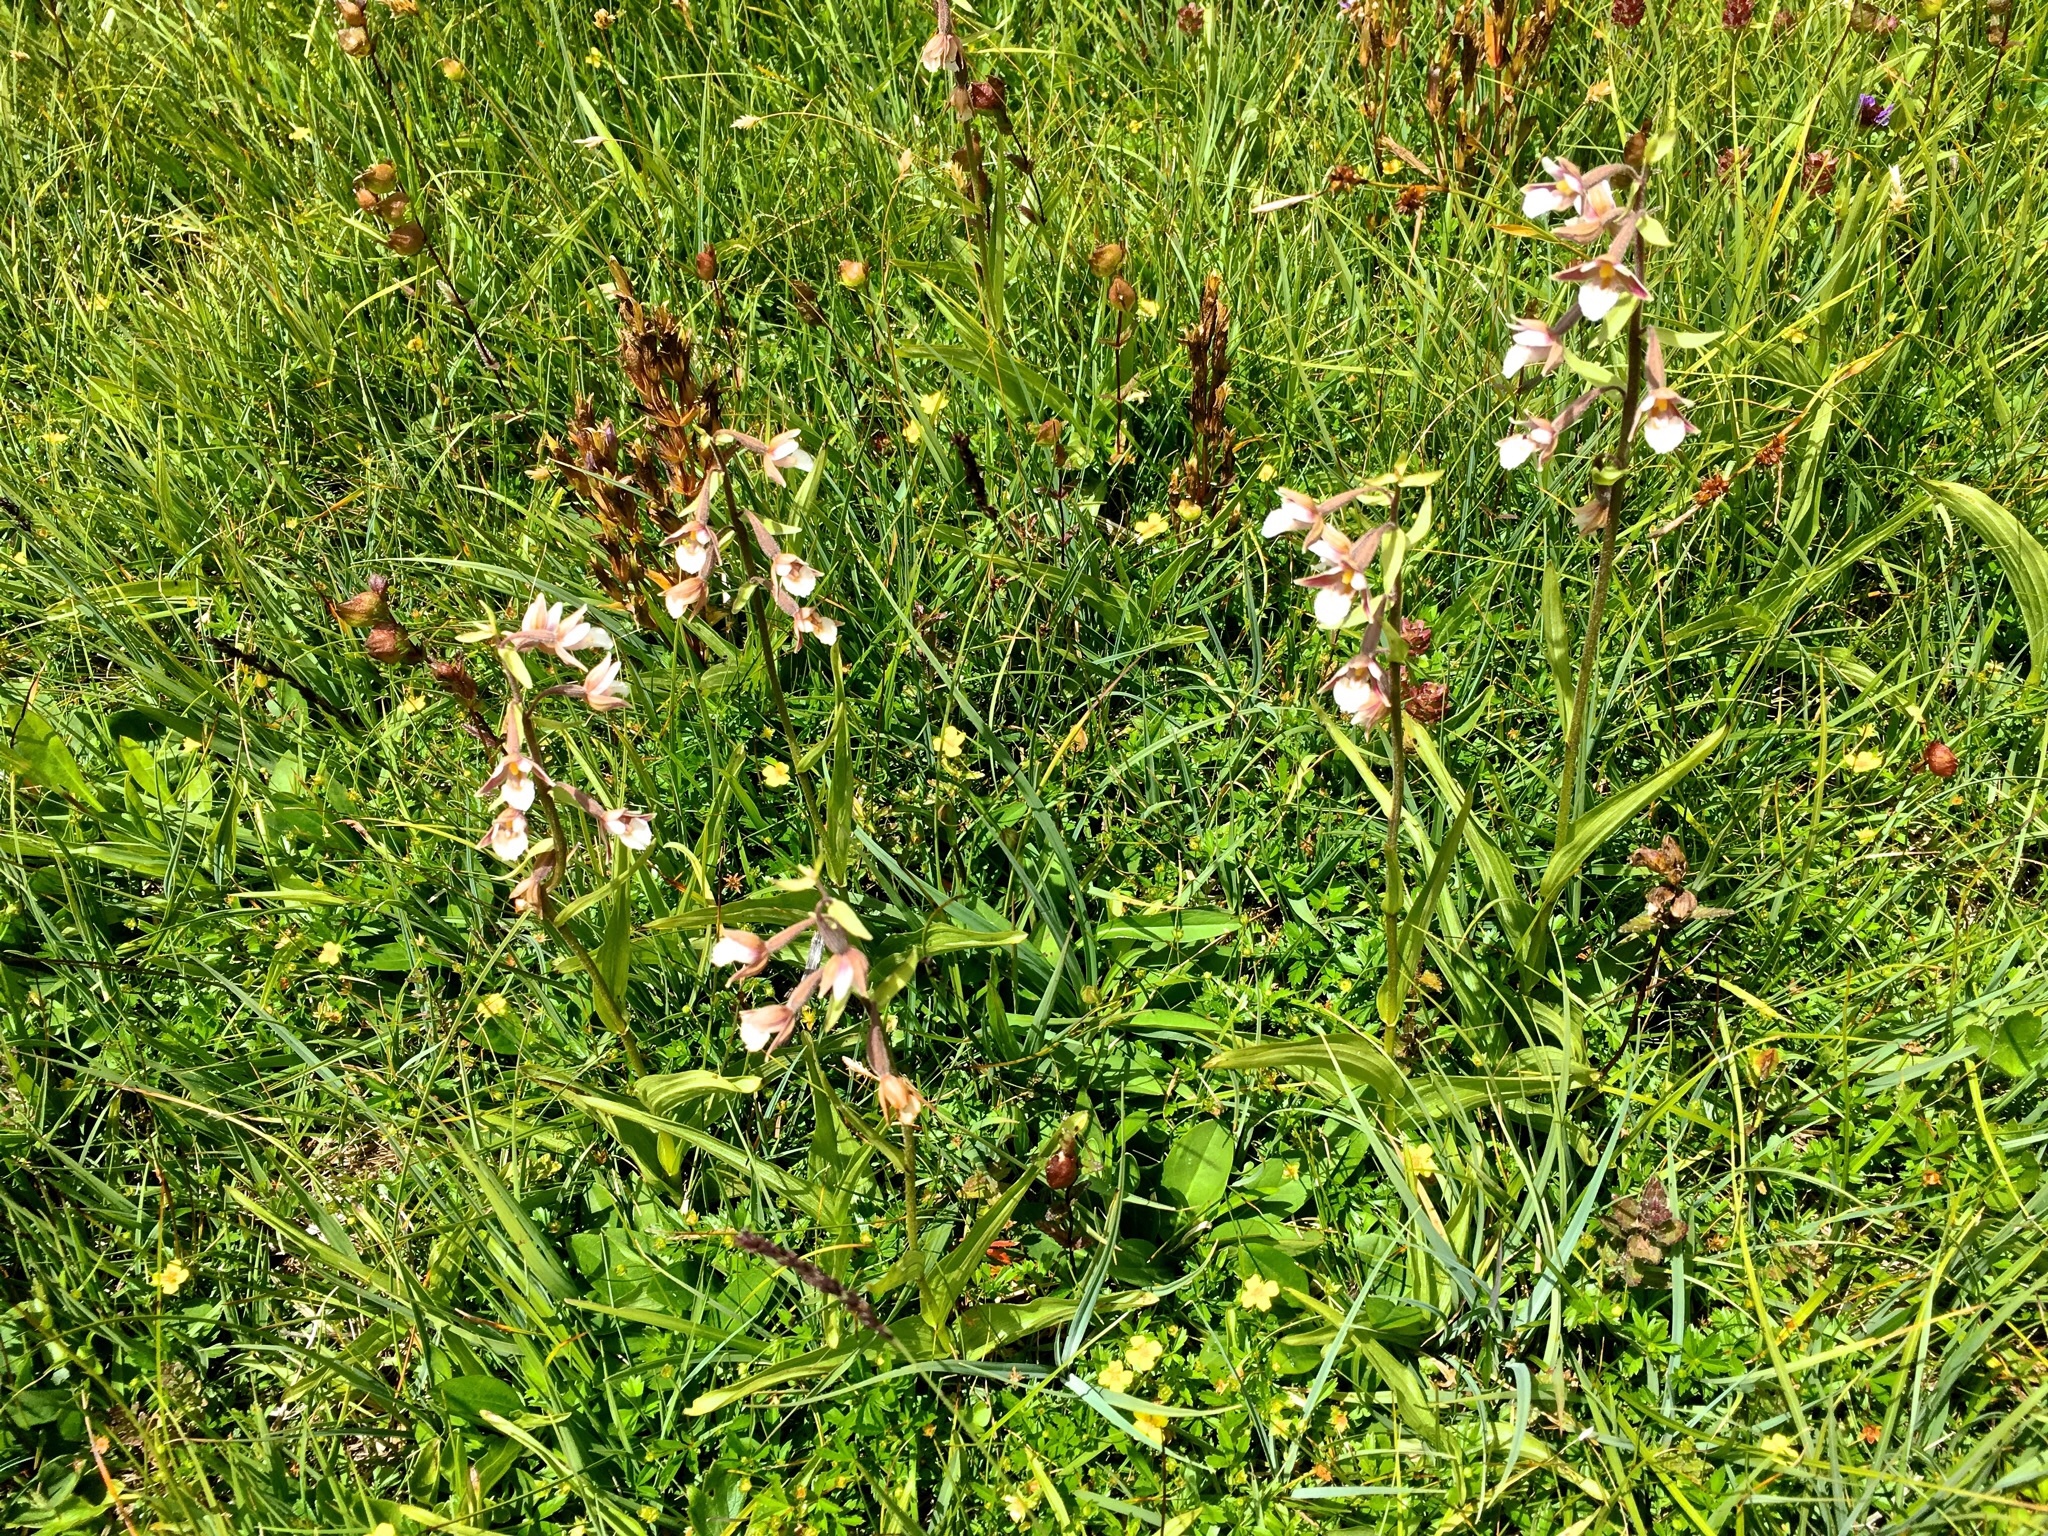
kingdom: Plantae
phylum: Tracheophyta
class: Liliopsida
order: Asparagales
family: Orchidaceae
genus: Epipactis
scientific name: Epipactis palustris
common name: Marsh helleborine
